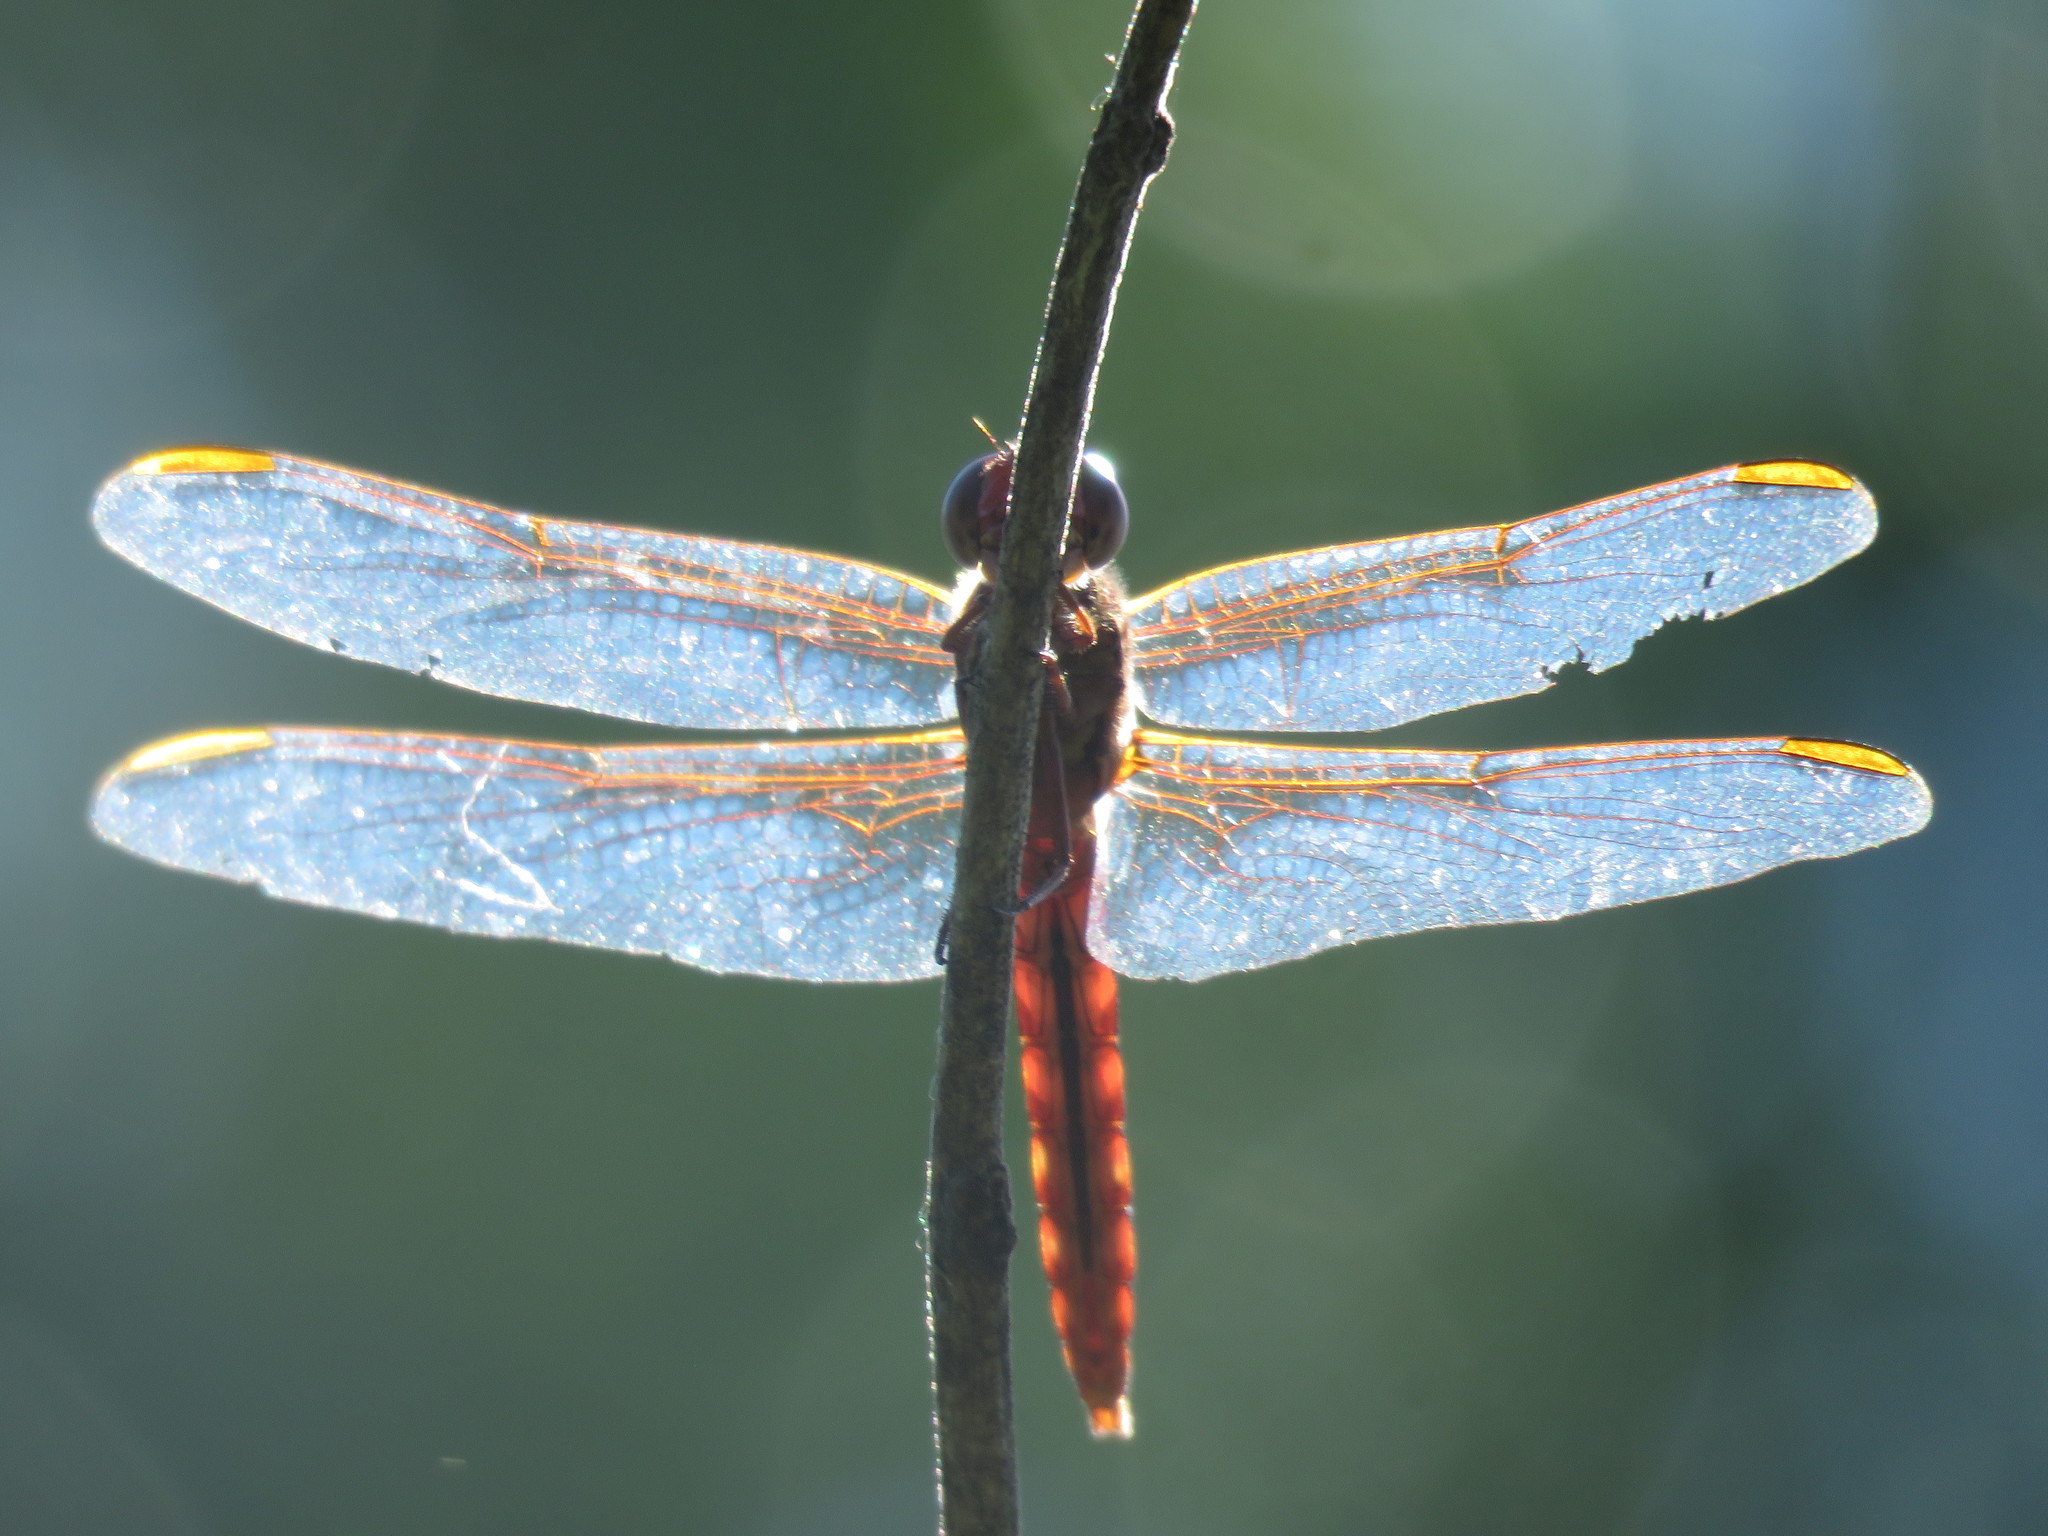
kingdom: Animalia
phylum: Arthropoda
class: Insecta
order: Odonata
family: Libellulidae
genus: Orthemis
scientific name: Orthemis nodiplaga
